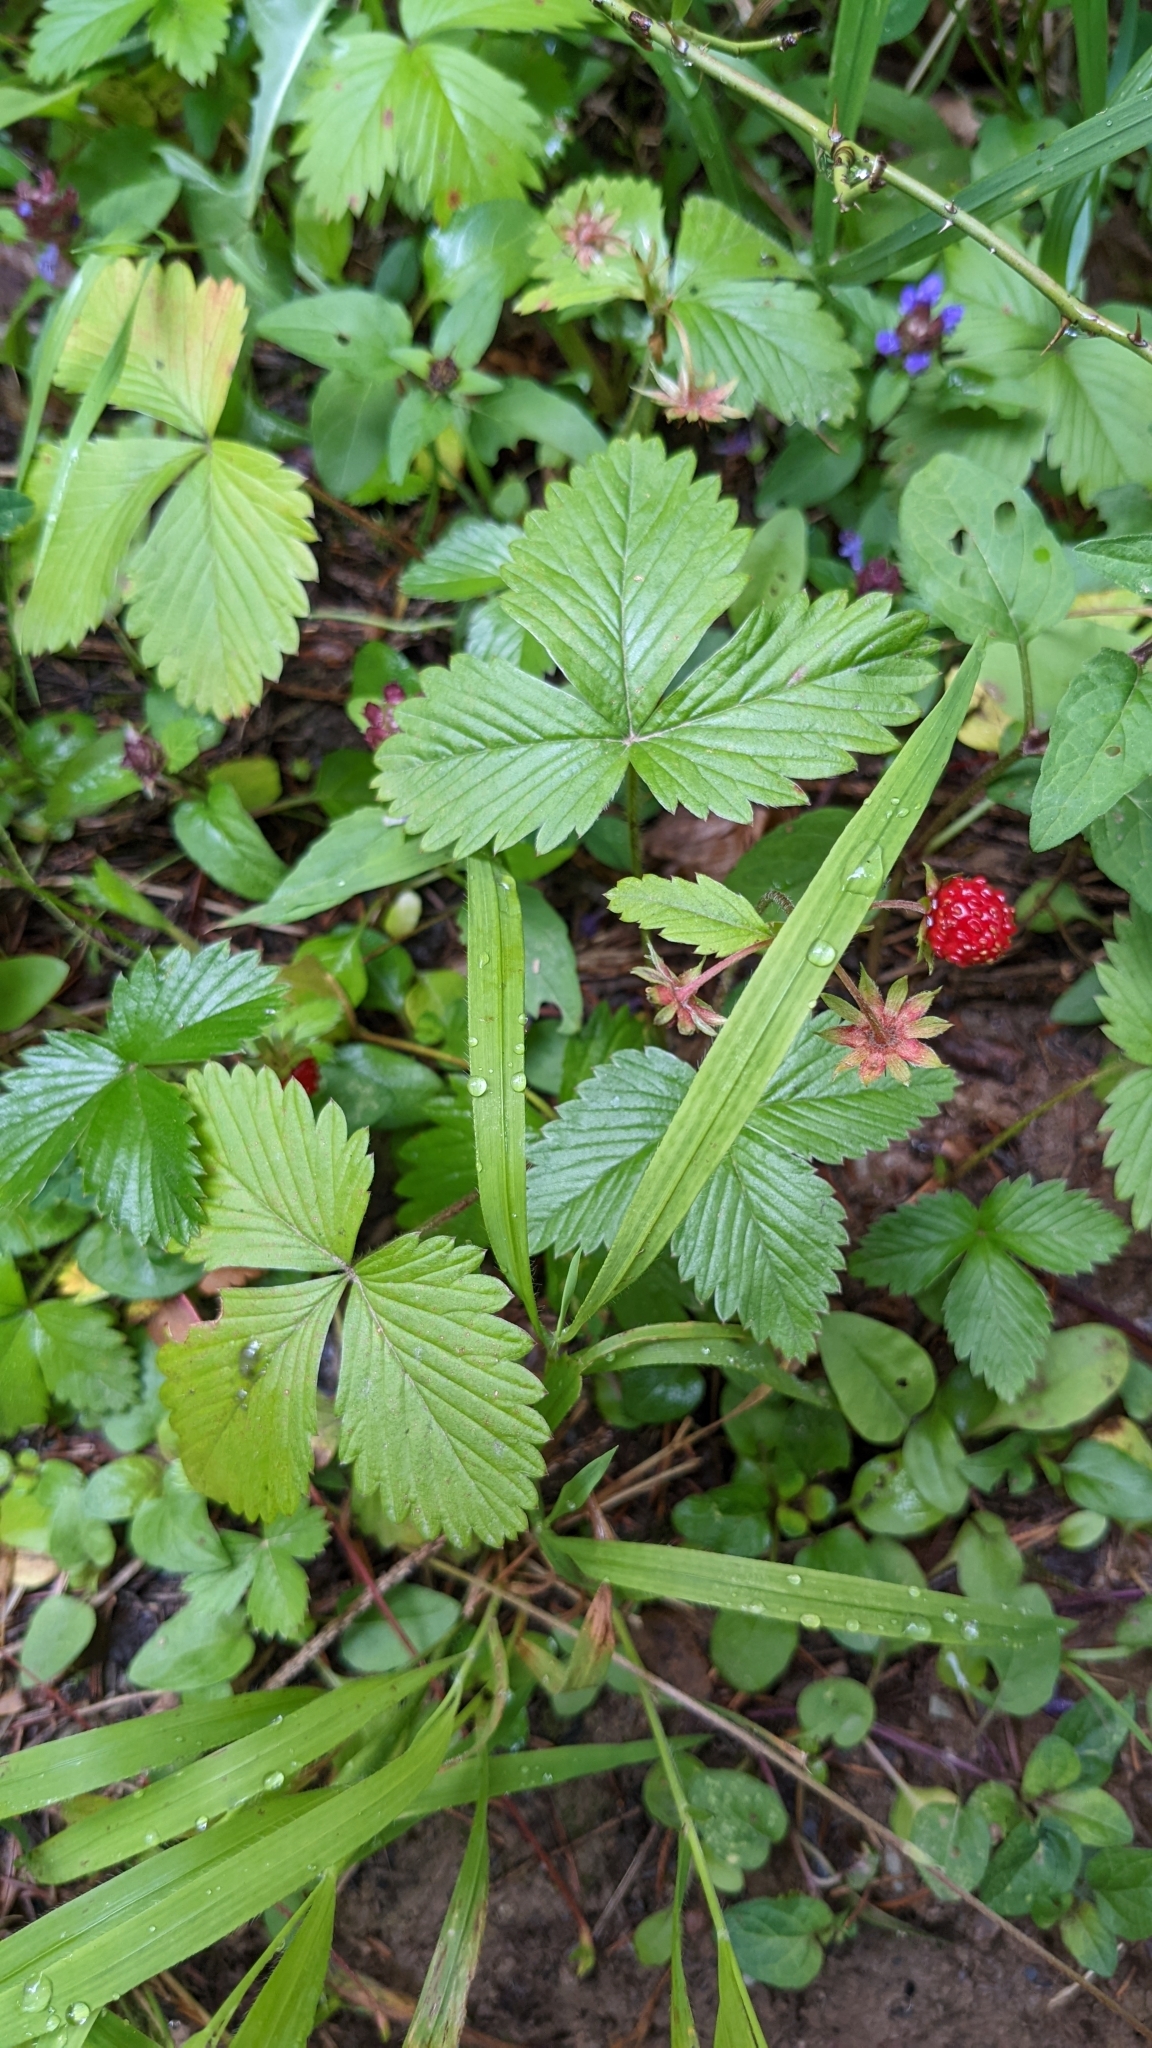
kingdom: Plantae
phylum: Tracheophyta
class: Magnoliopsida
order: Rosales
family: Rosaceae
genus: Fragaria
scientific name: Fragaria vesca
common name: Wild strawberry
